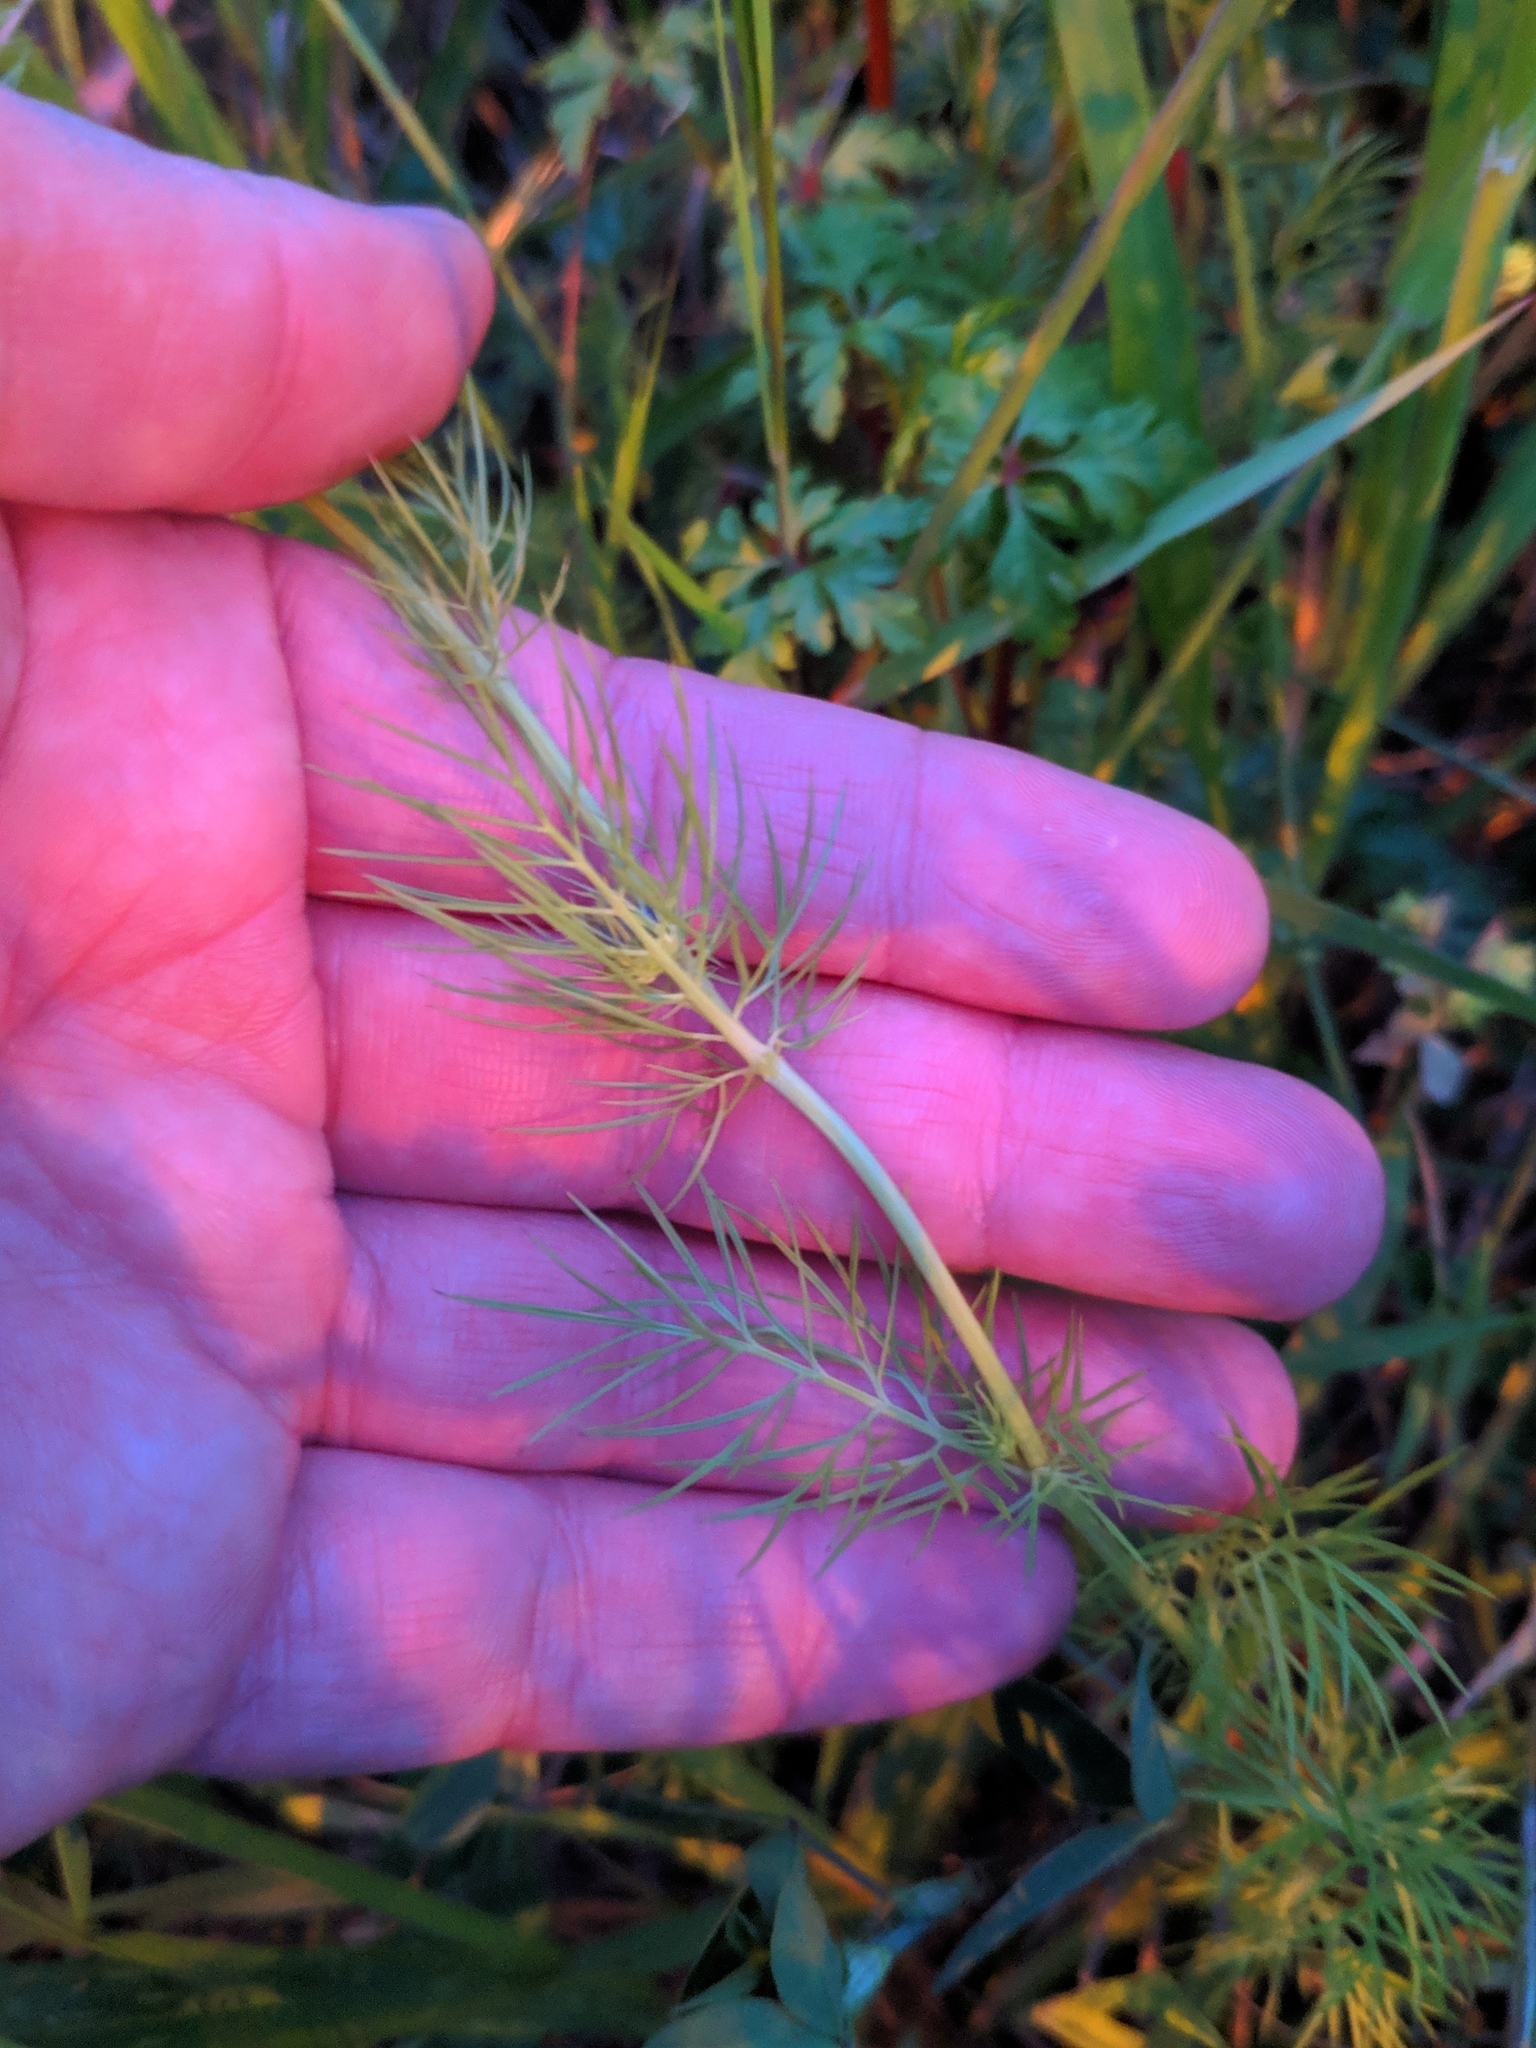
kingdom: Plantae
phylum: Tracheophyta
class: Magnoliopsida
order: Ranunculales
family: Ranunculaceae
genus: Nigella
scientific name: Nigella damascena
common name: Love-in-a-mist
